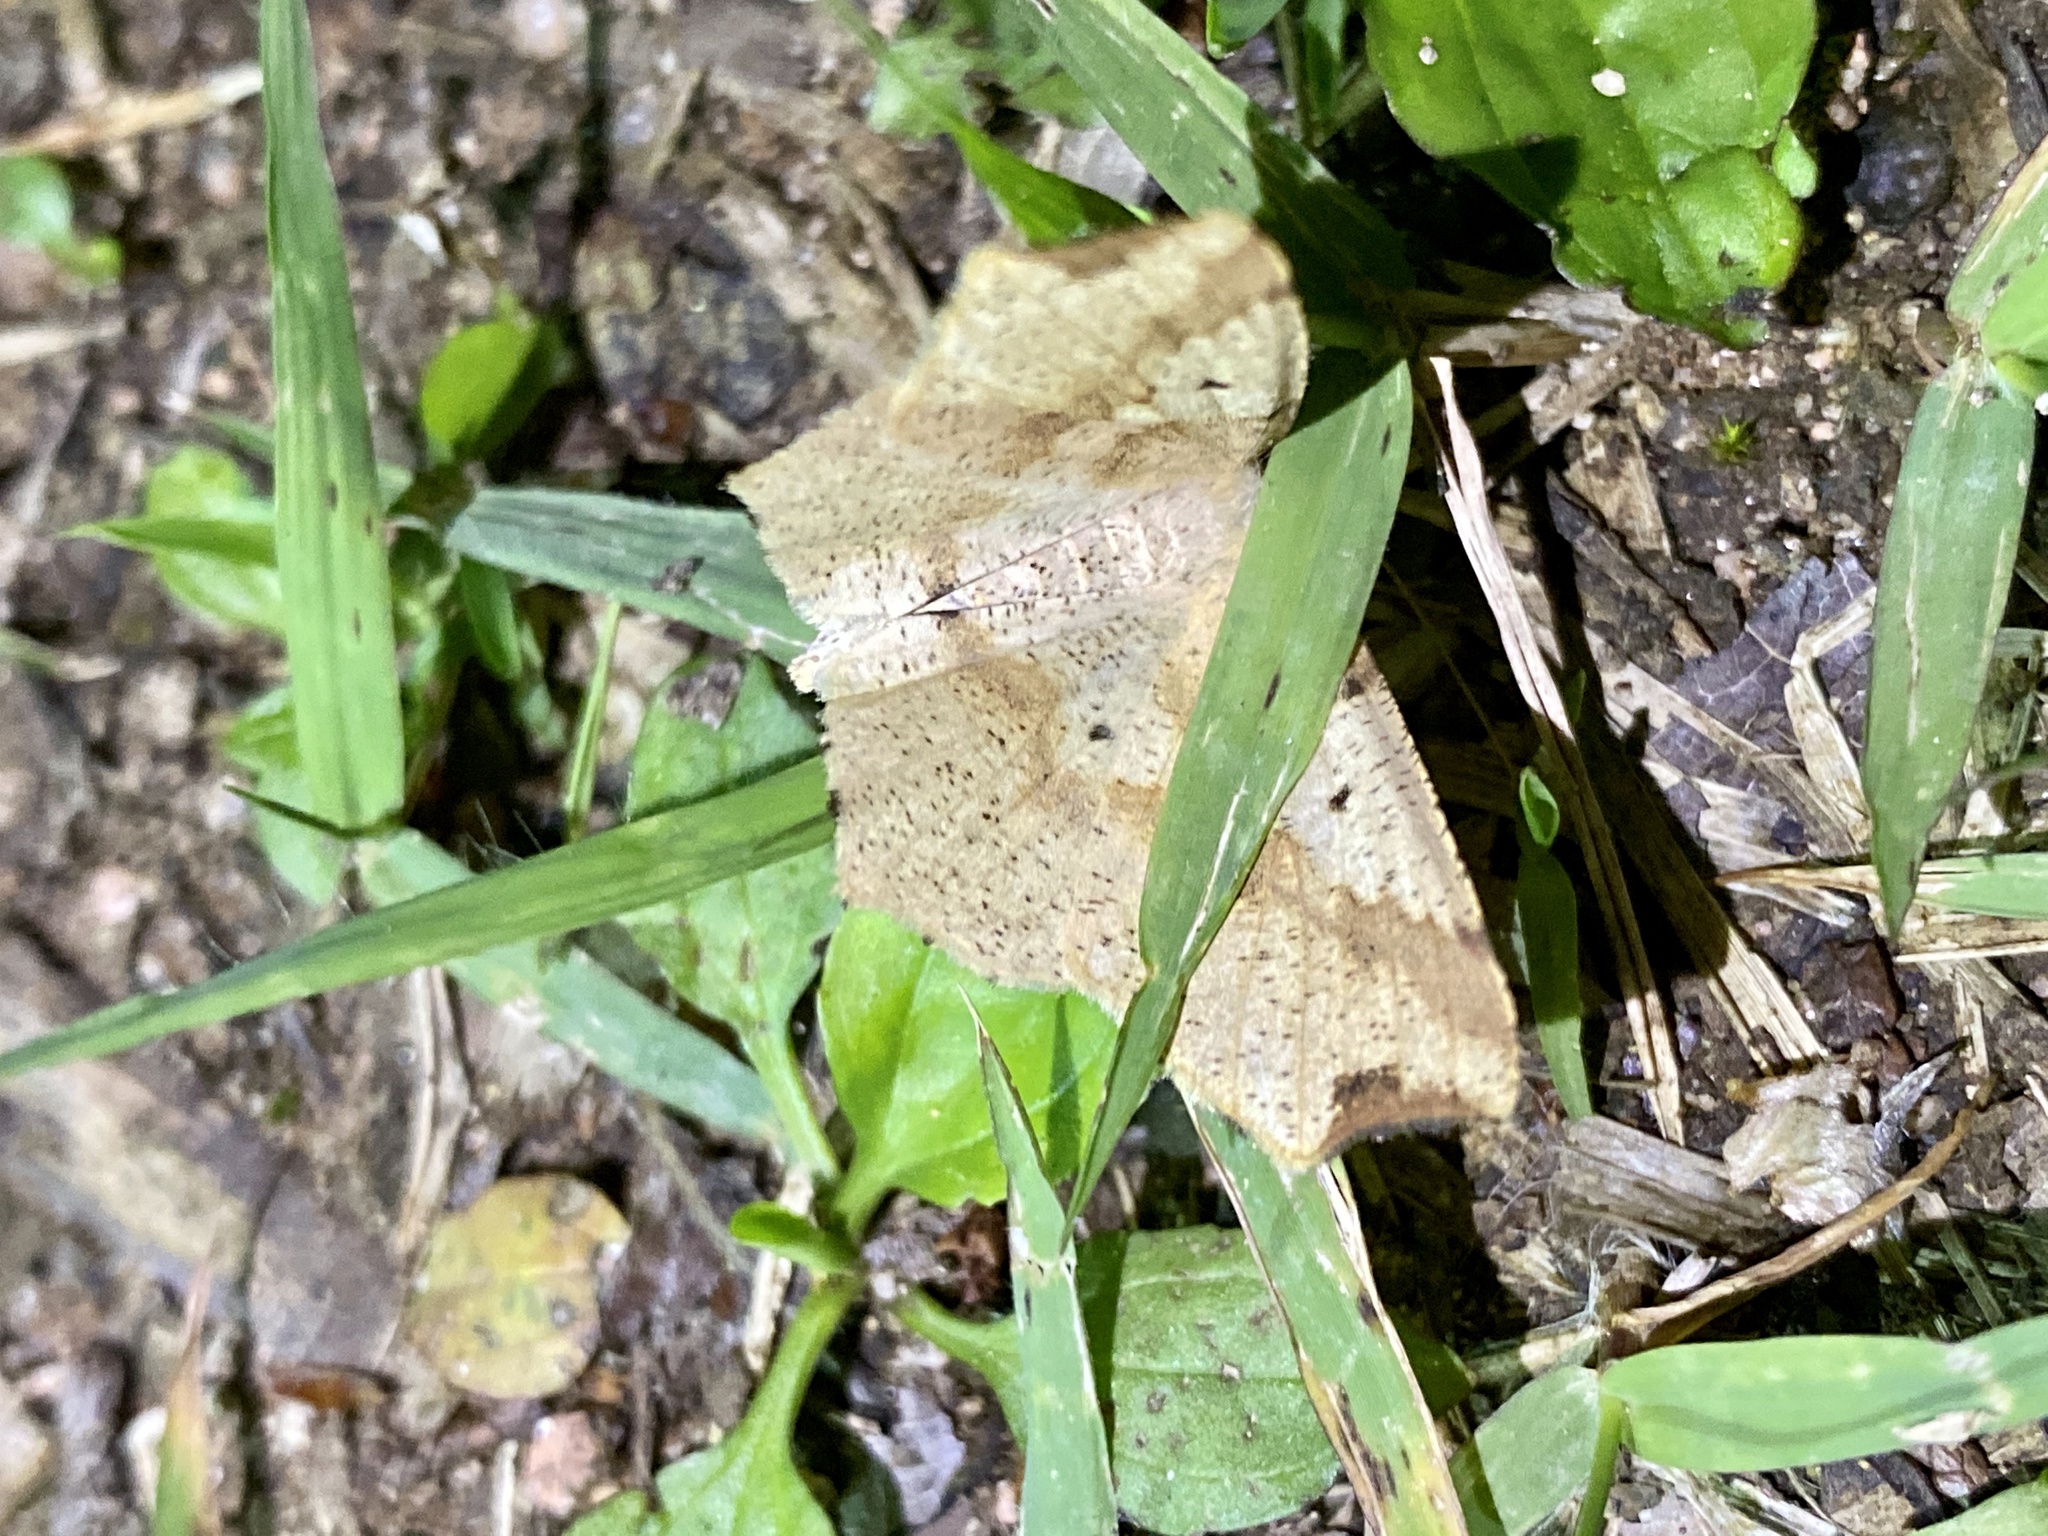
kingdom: Animalia
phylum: Arthropoda
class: Insecta
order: Lepidoptera
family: Geometridae
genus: Pareclipsis
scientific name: Pareclipsis gracilis
